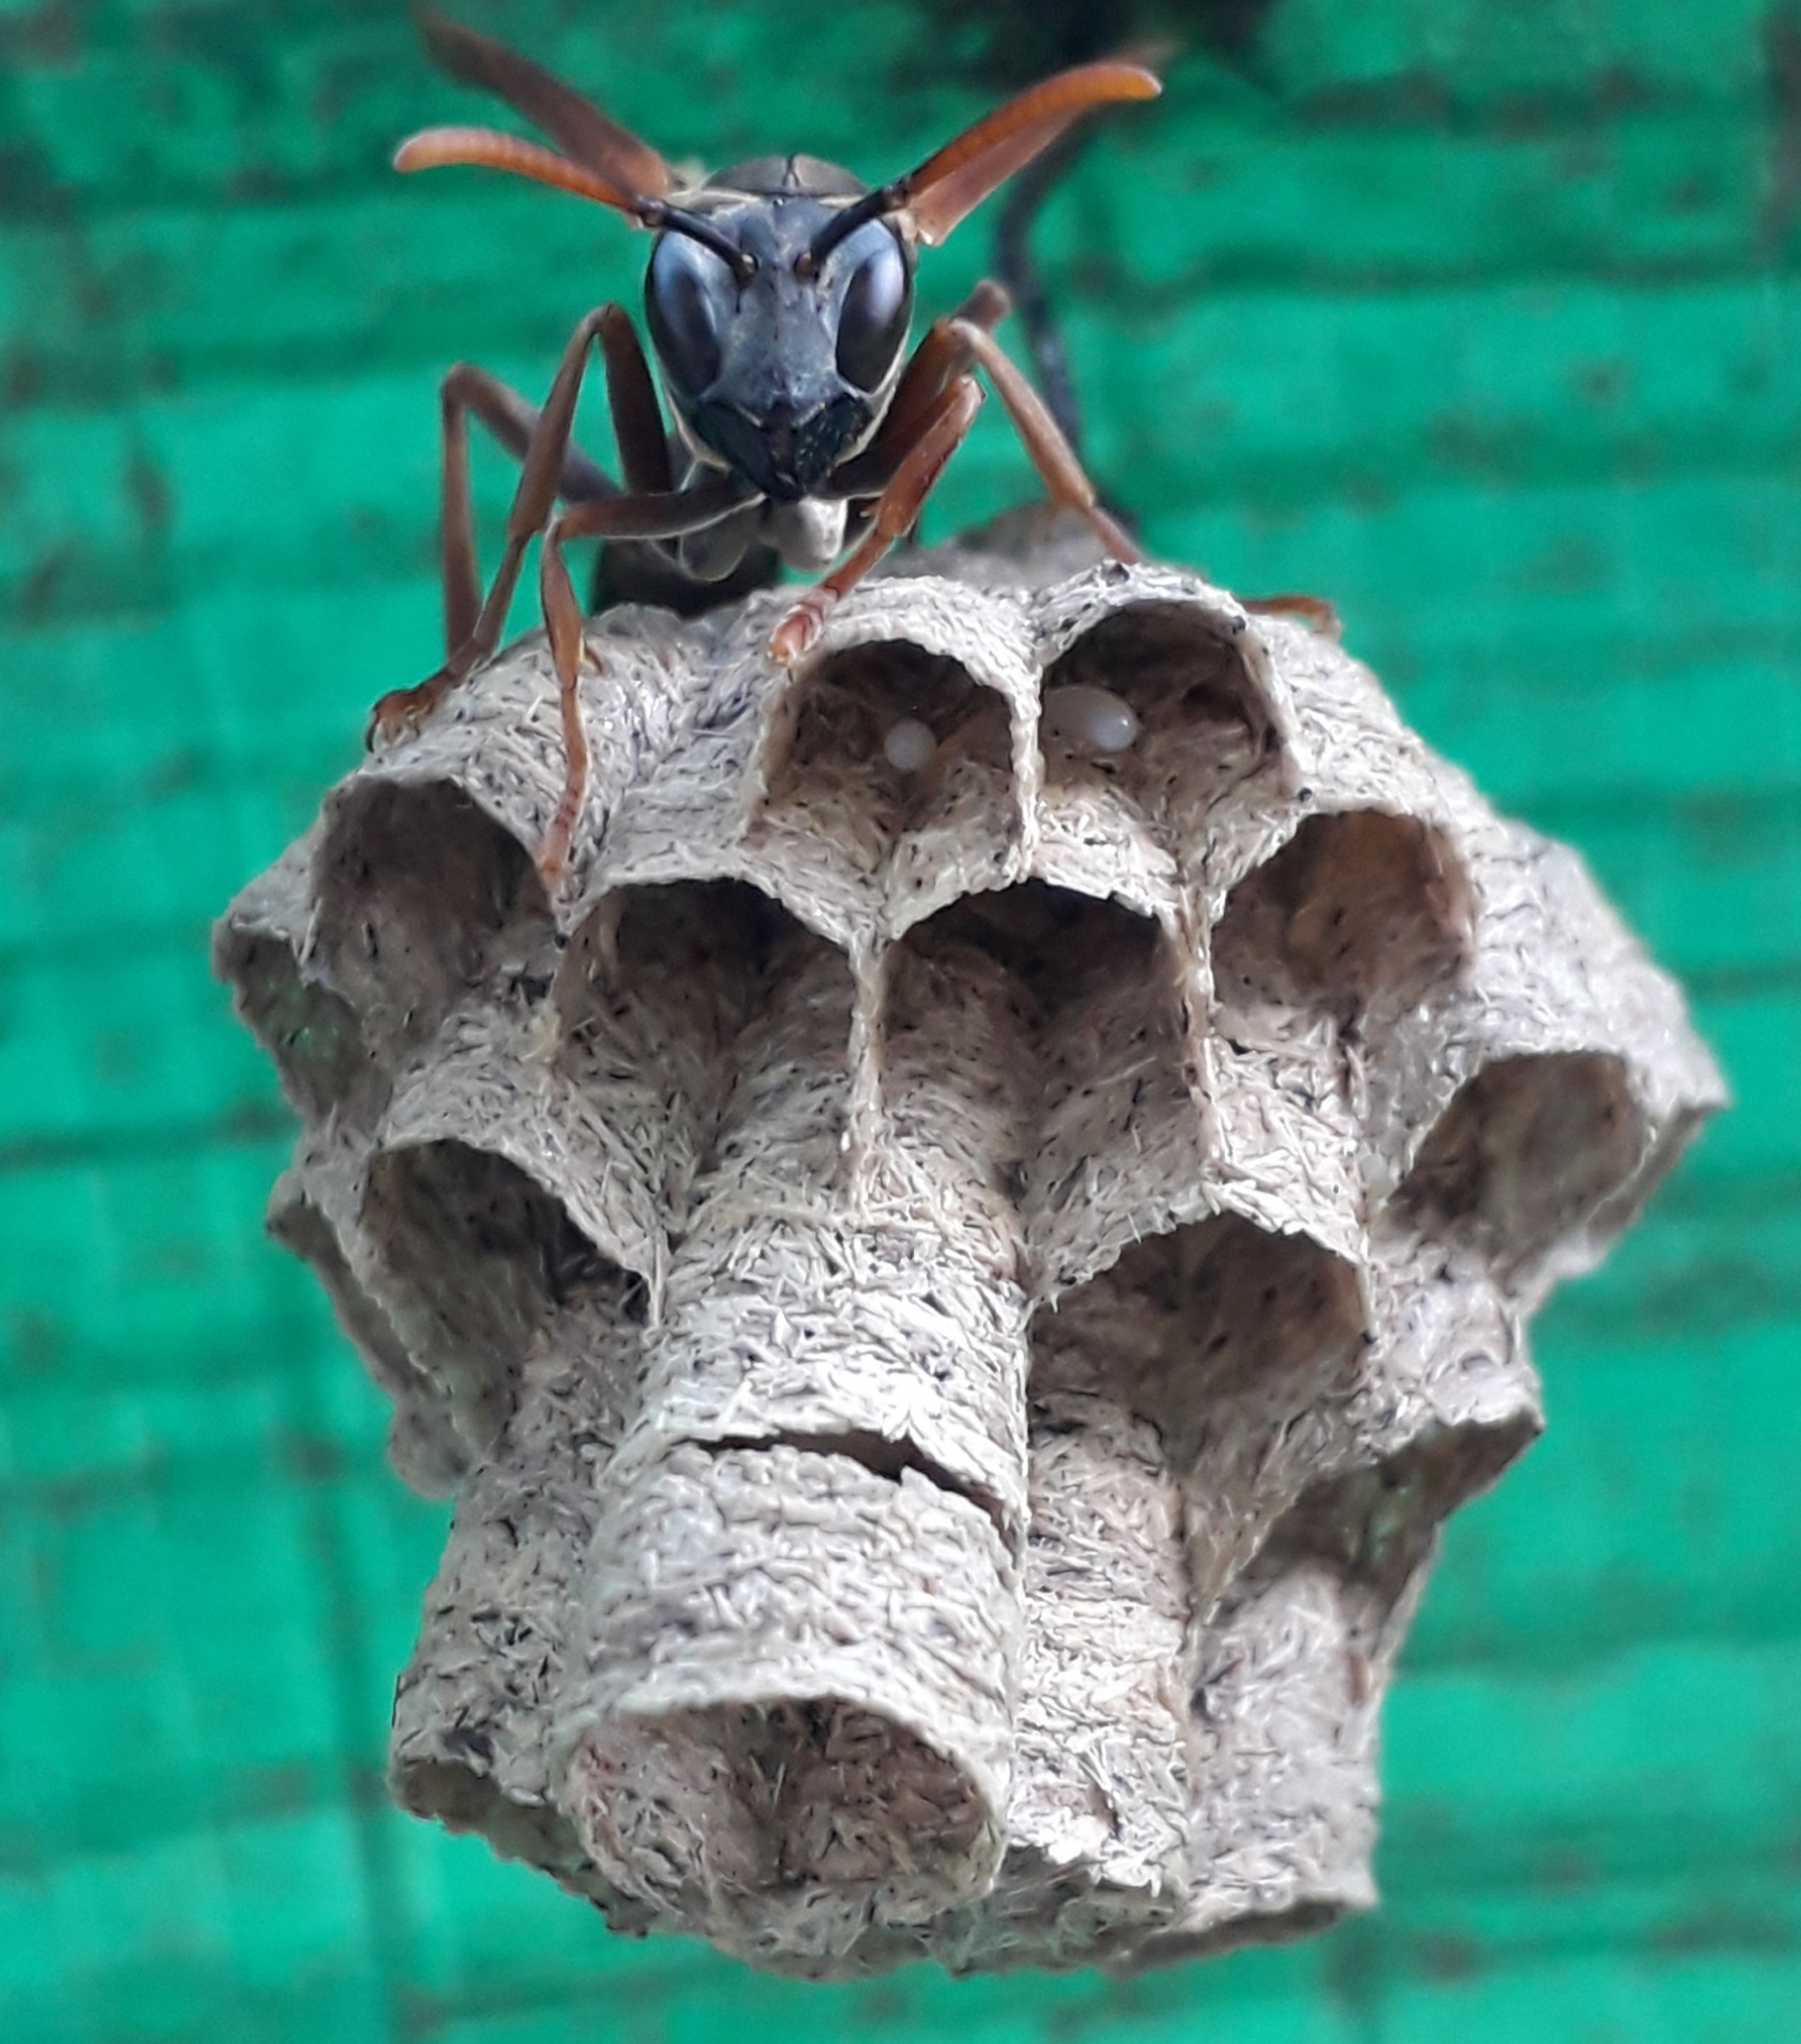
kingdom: Animalia
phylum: Arthropoda
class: Insecta
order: Hymenoptera
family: Vespidae
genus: Mischocyttarus
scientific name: Mischocyttarus drewseni
